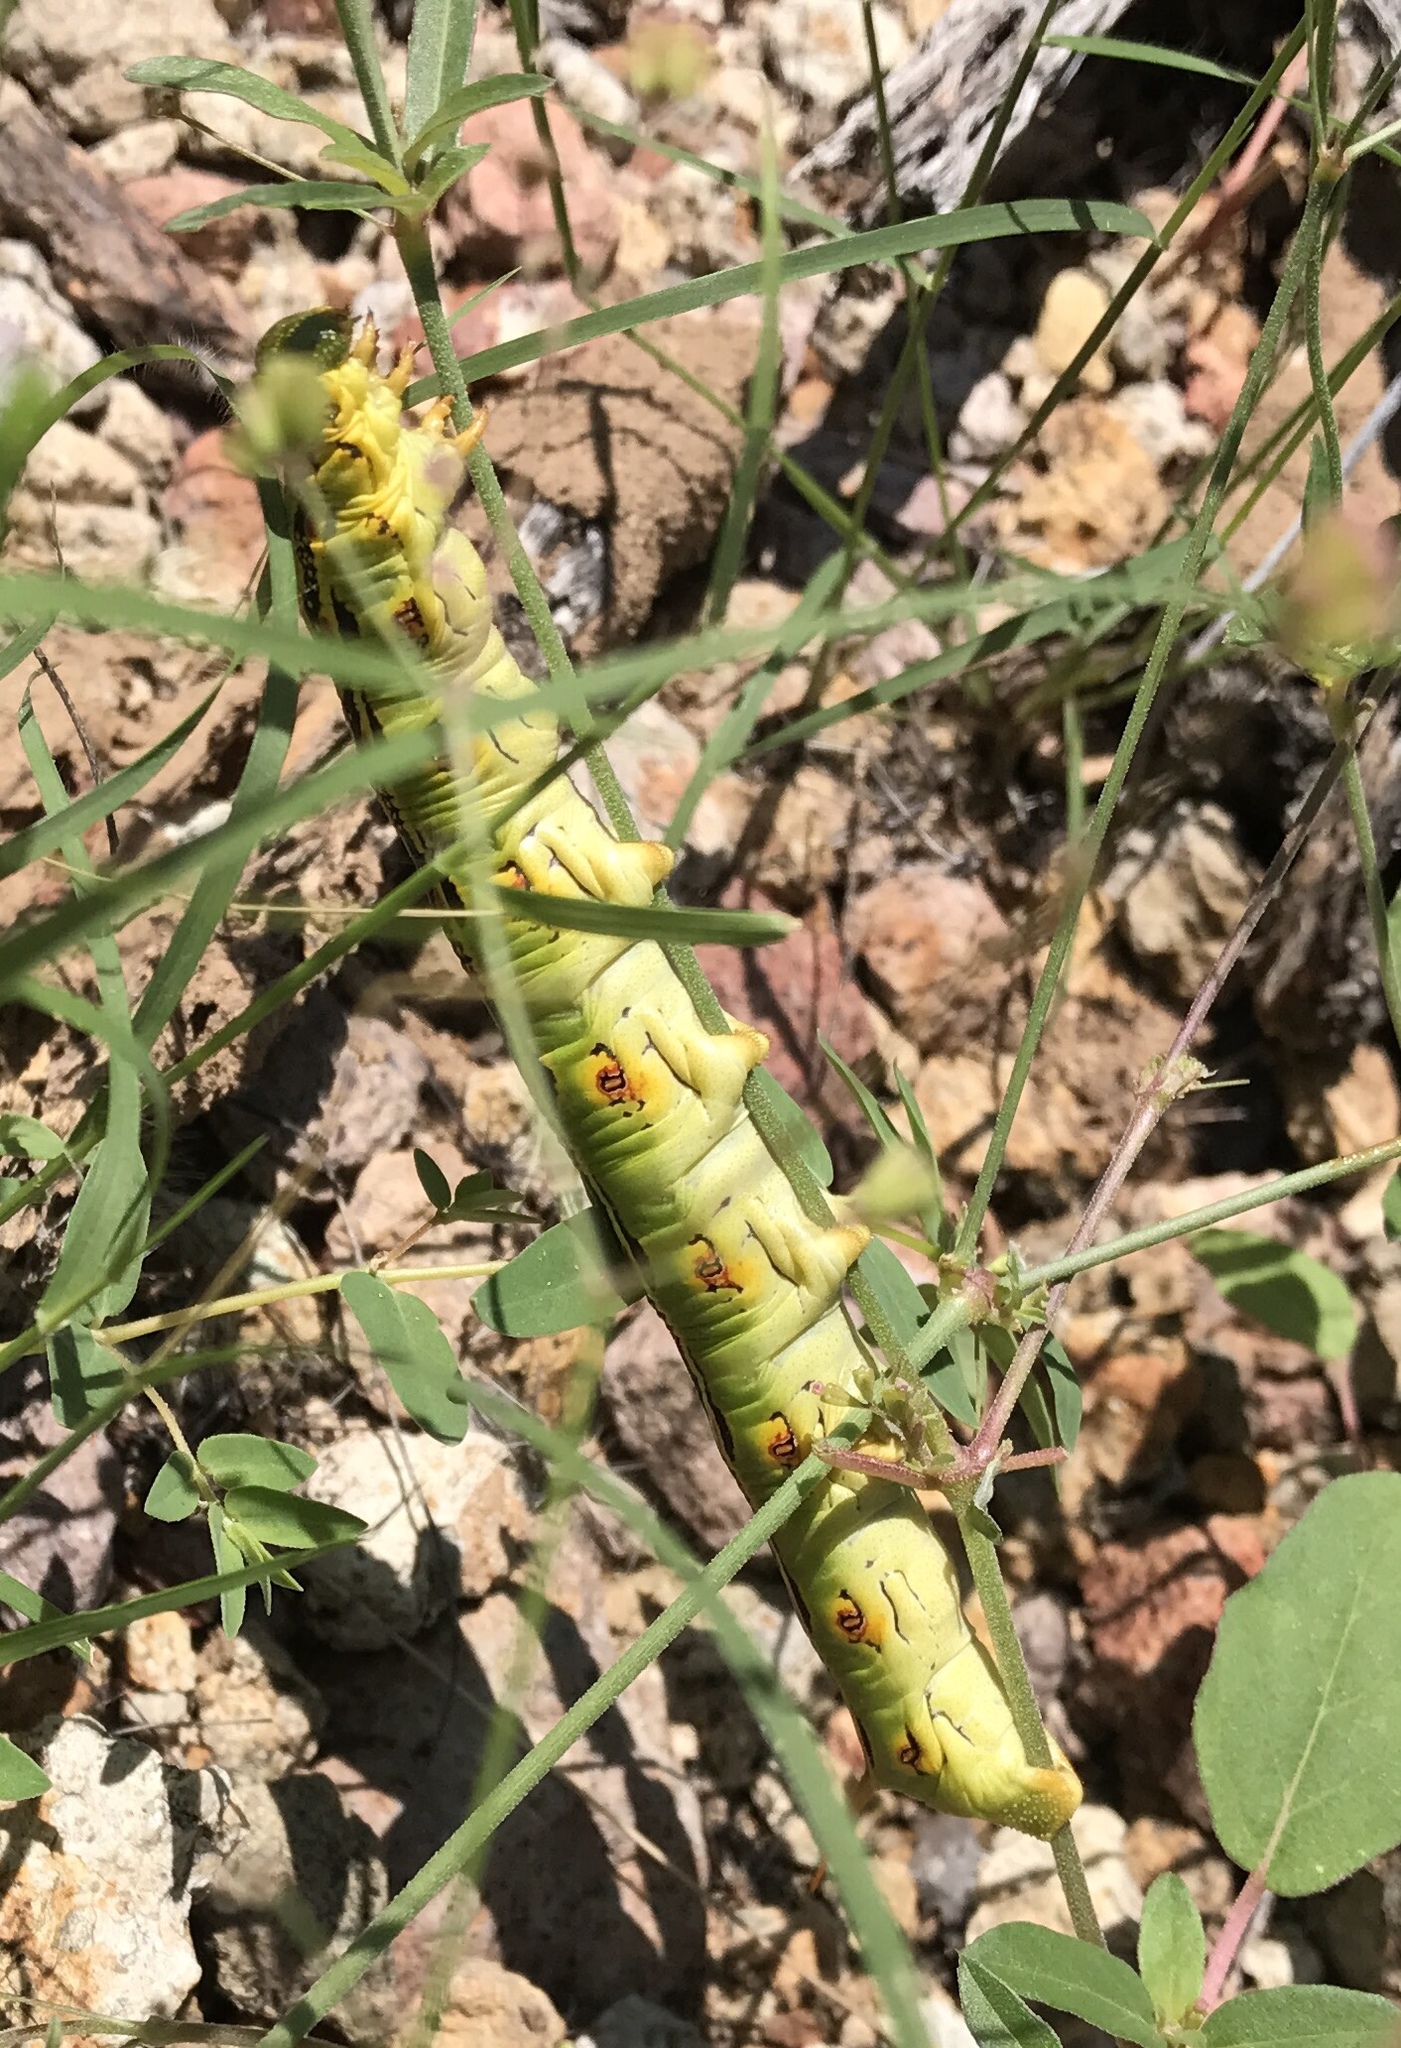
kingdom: Animalia
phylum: Arthropoda
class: Insecta
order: Lepidoptera
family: Sphingidae
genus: Hyles
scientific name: Hyles lineata
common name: White-lined sphinx
